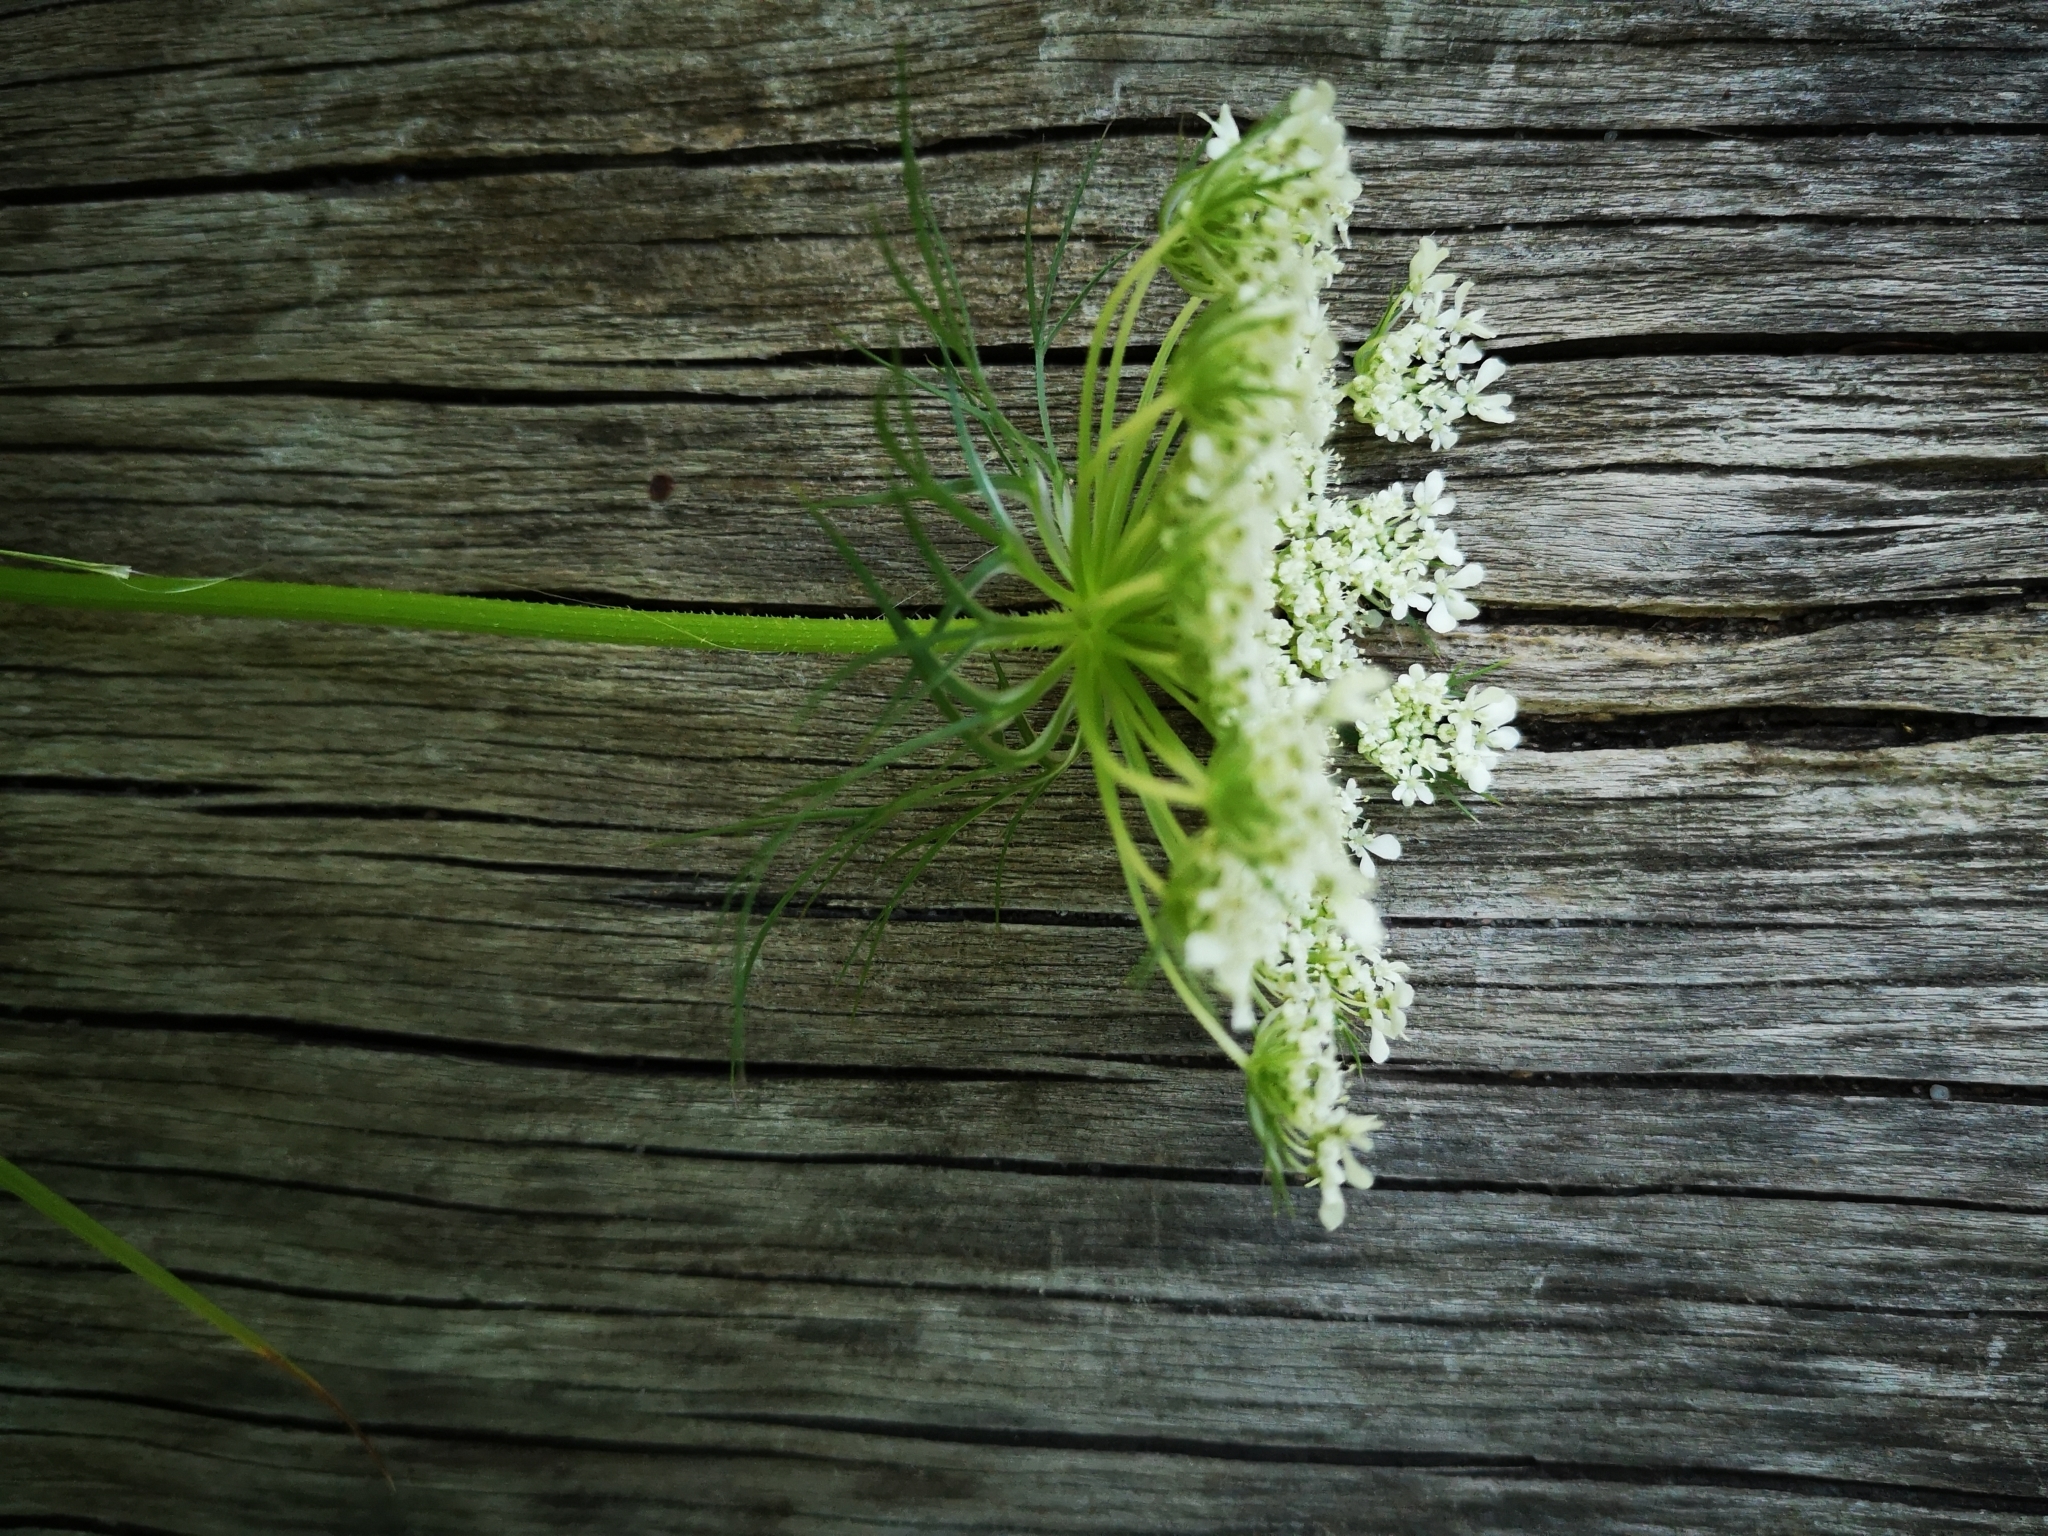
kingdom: Plantae
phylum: Tracheophyta
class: Magnoliopsida
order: Apiales
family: Apiaceae
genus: Daucus
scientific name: Daucus carota
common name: Wild carrot
